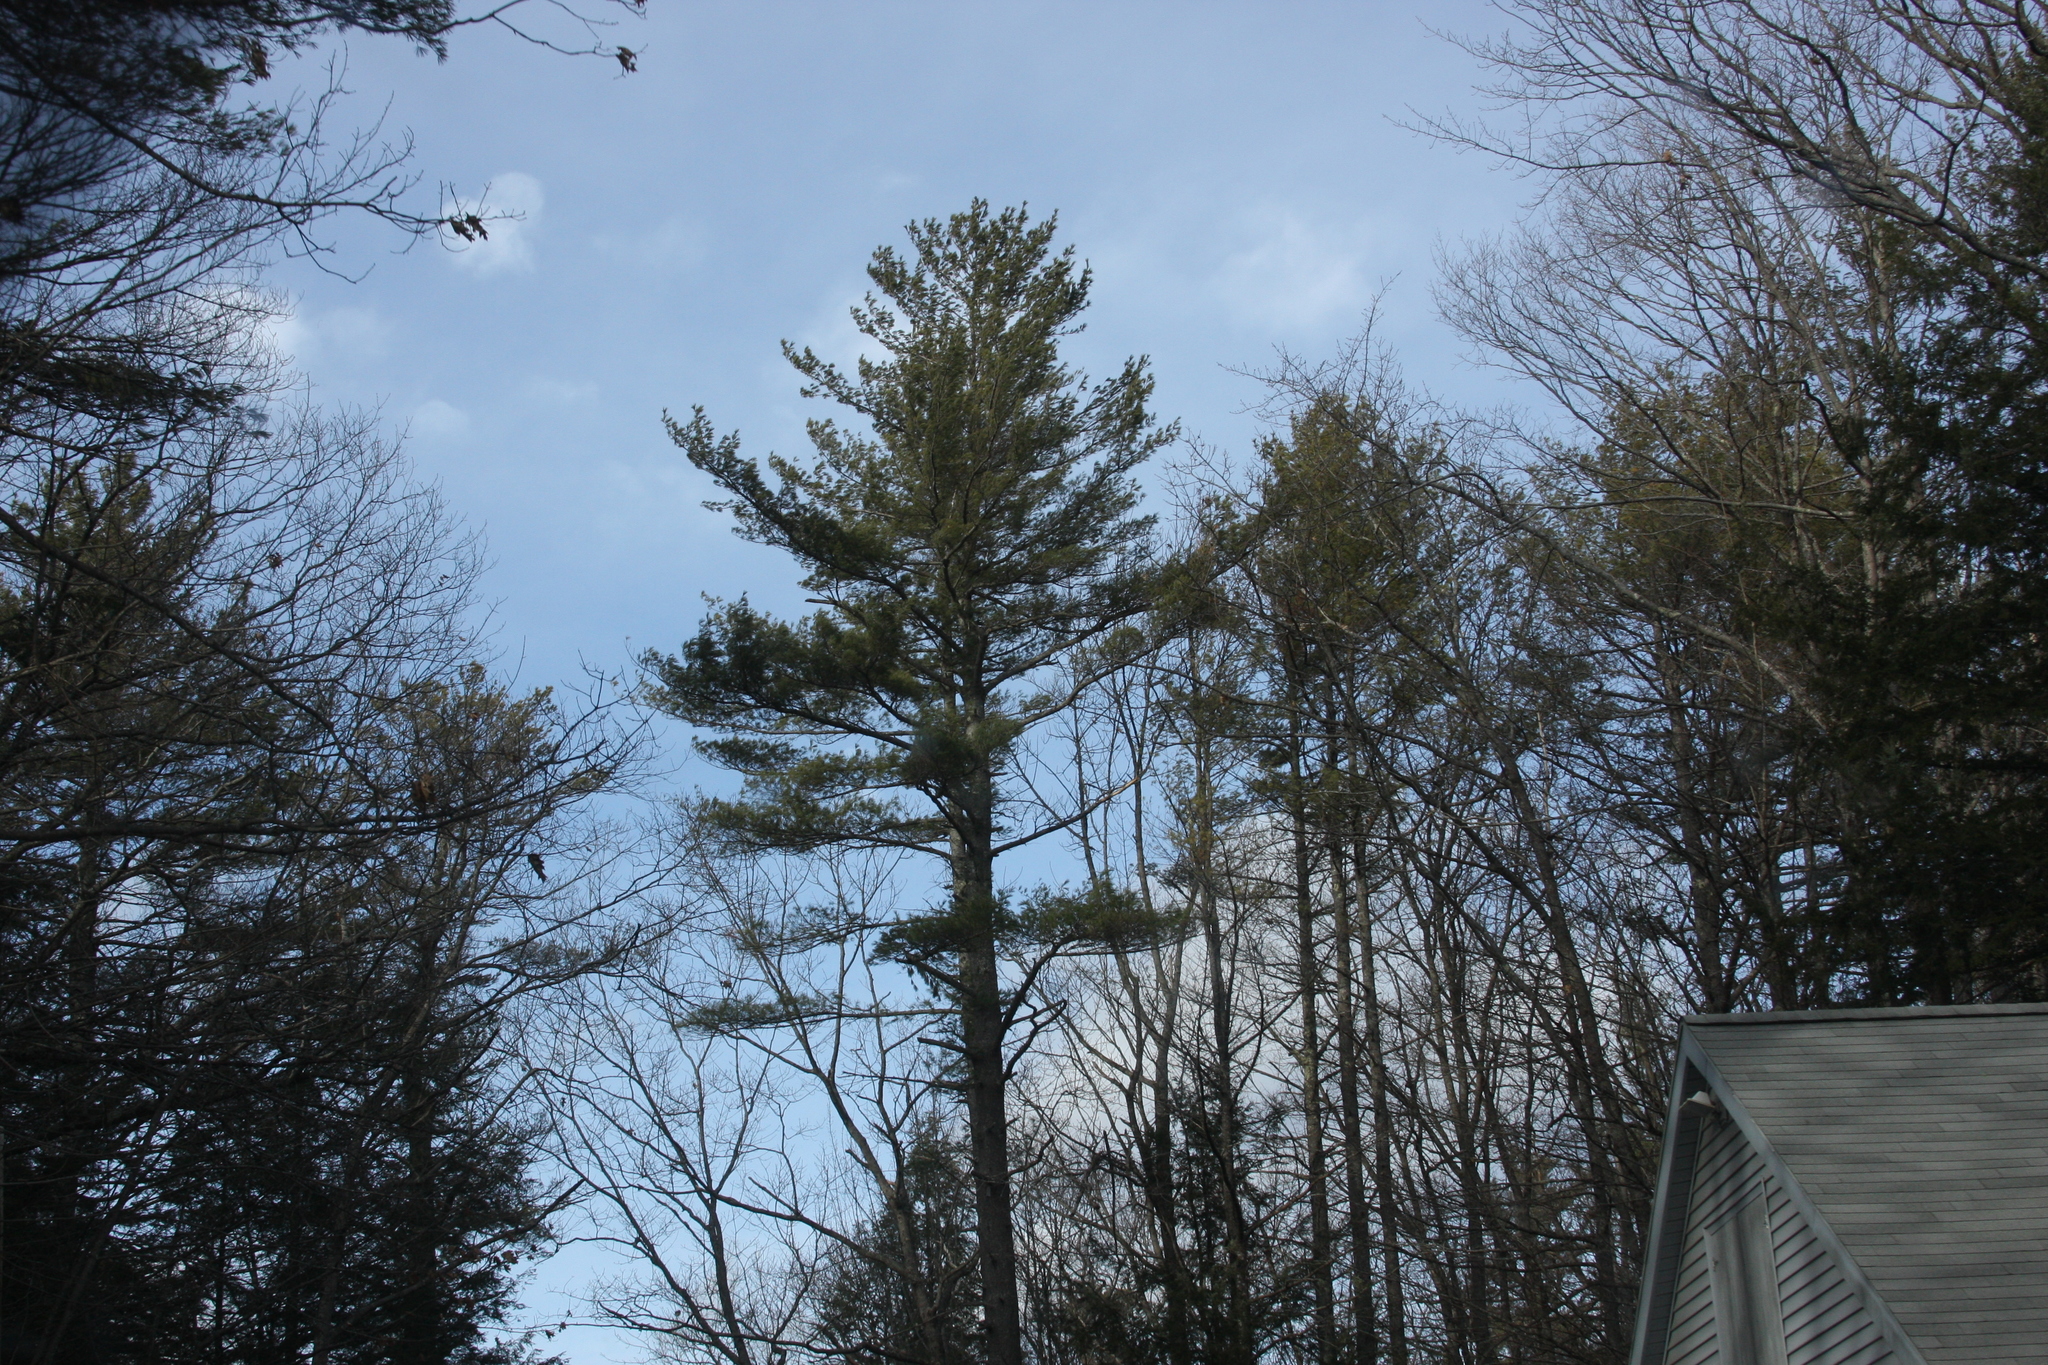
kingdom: Plantae
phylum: Tracheophyta
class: Pinopsida
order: Pinales
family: Pinaceae
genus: Pinus
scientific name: Pinus strobus
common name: Weymouth pine
